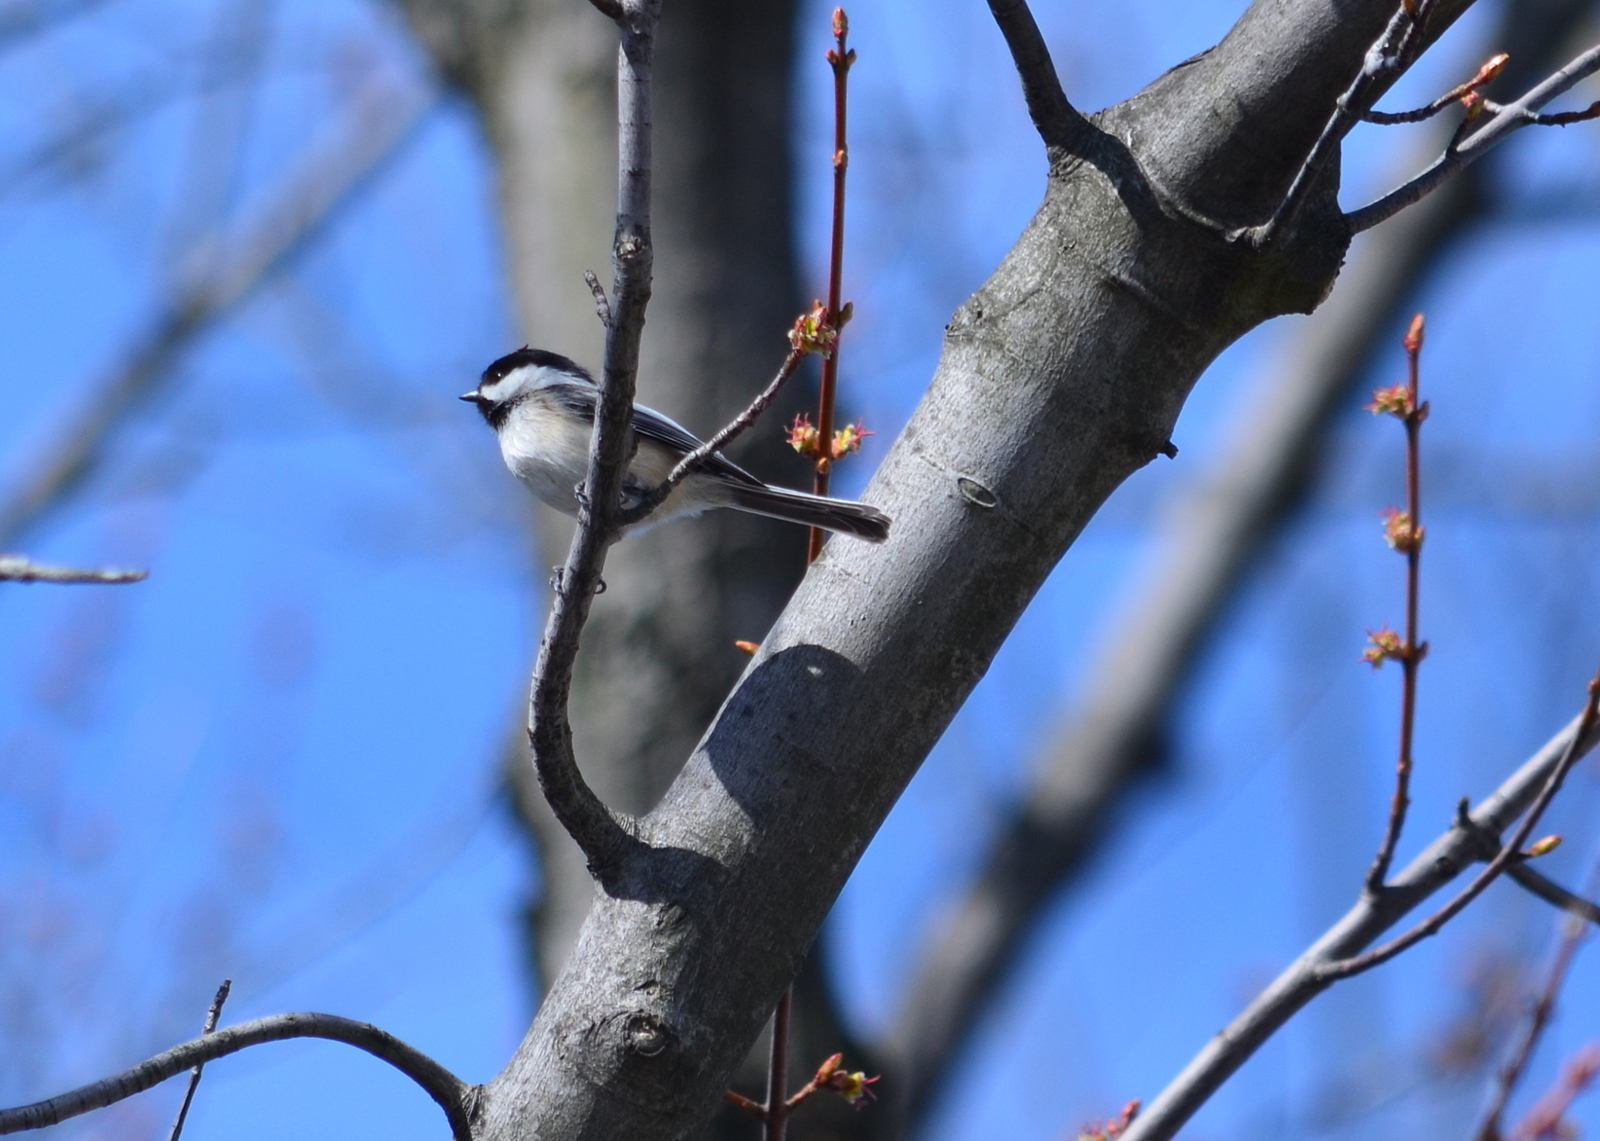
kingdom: Animalia
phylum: Chordata
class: Aves
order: Passeriformes
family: Paridae
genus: Poecile
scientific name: Poecile atricapillus
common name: Black-capped chickadee
